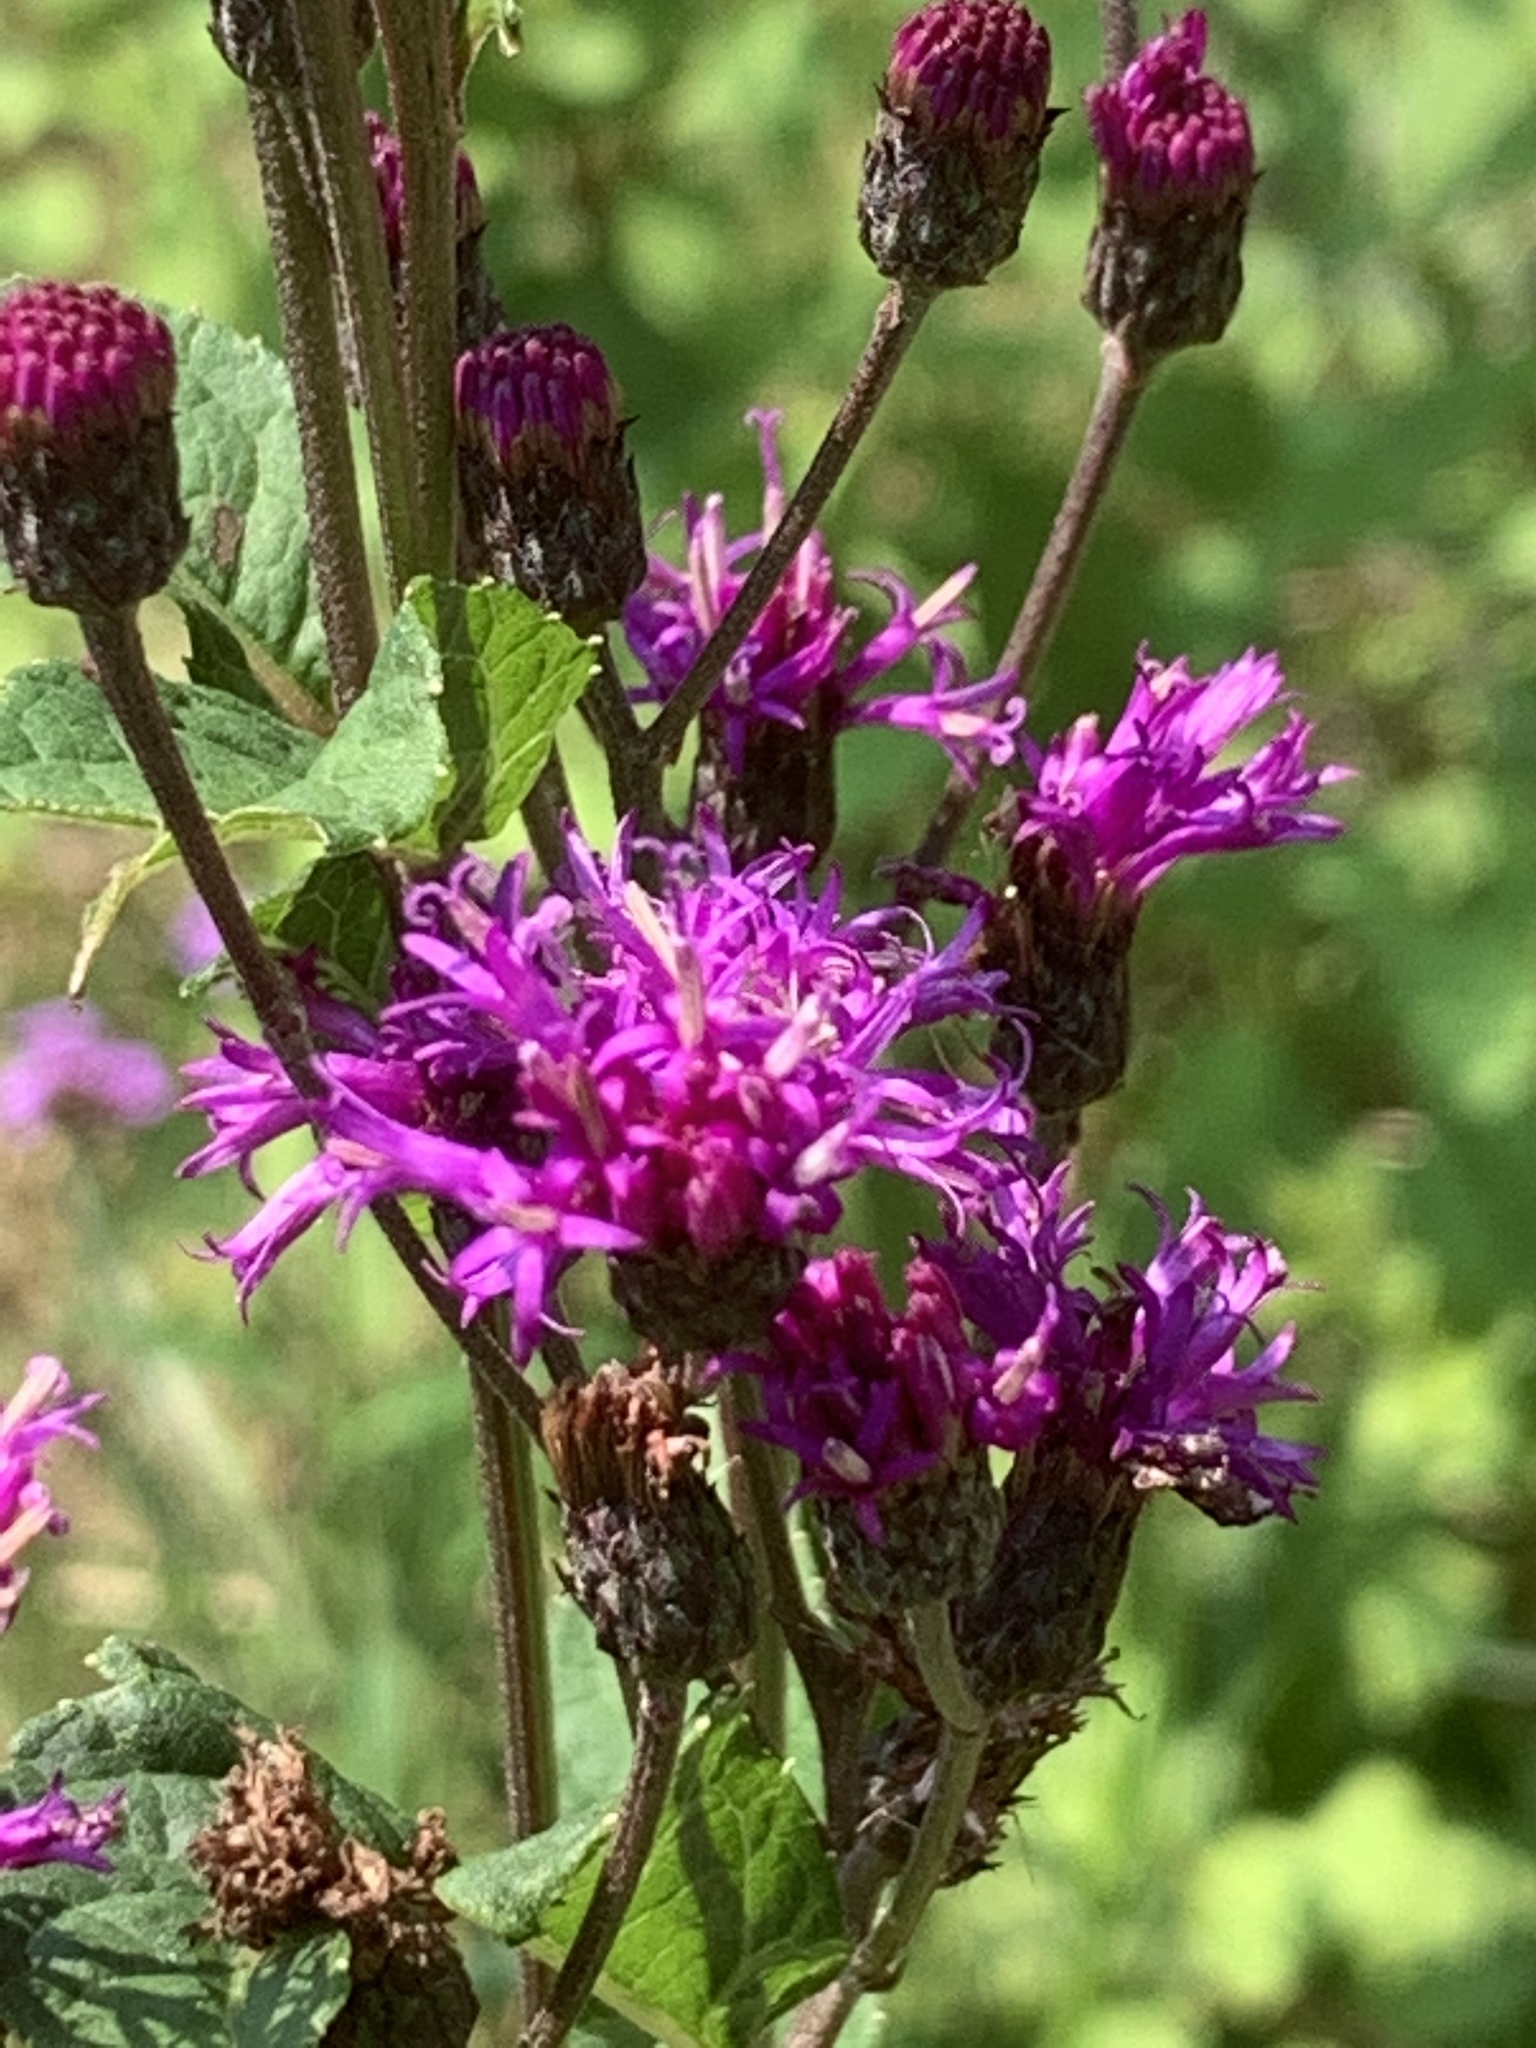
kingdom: Plantae
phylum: Tracheophyta
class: Magnoliopsida
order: Asterales
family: Asteraceae
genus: Vernonia
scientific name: Vernonia gigantea
